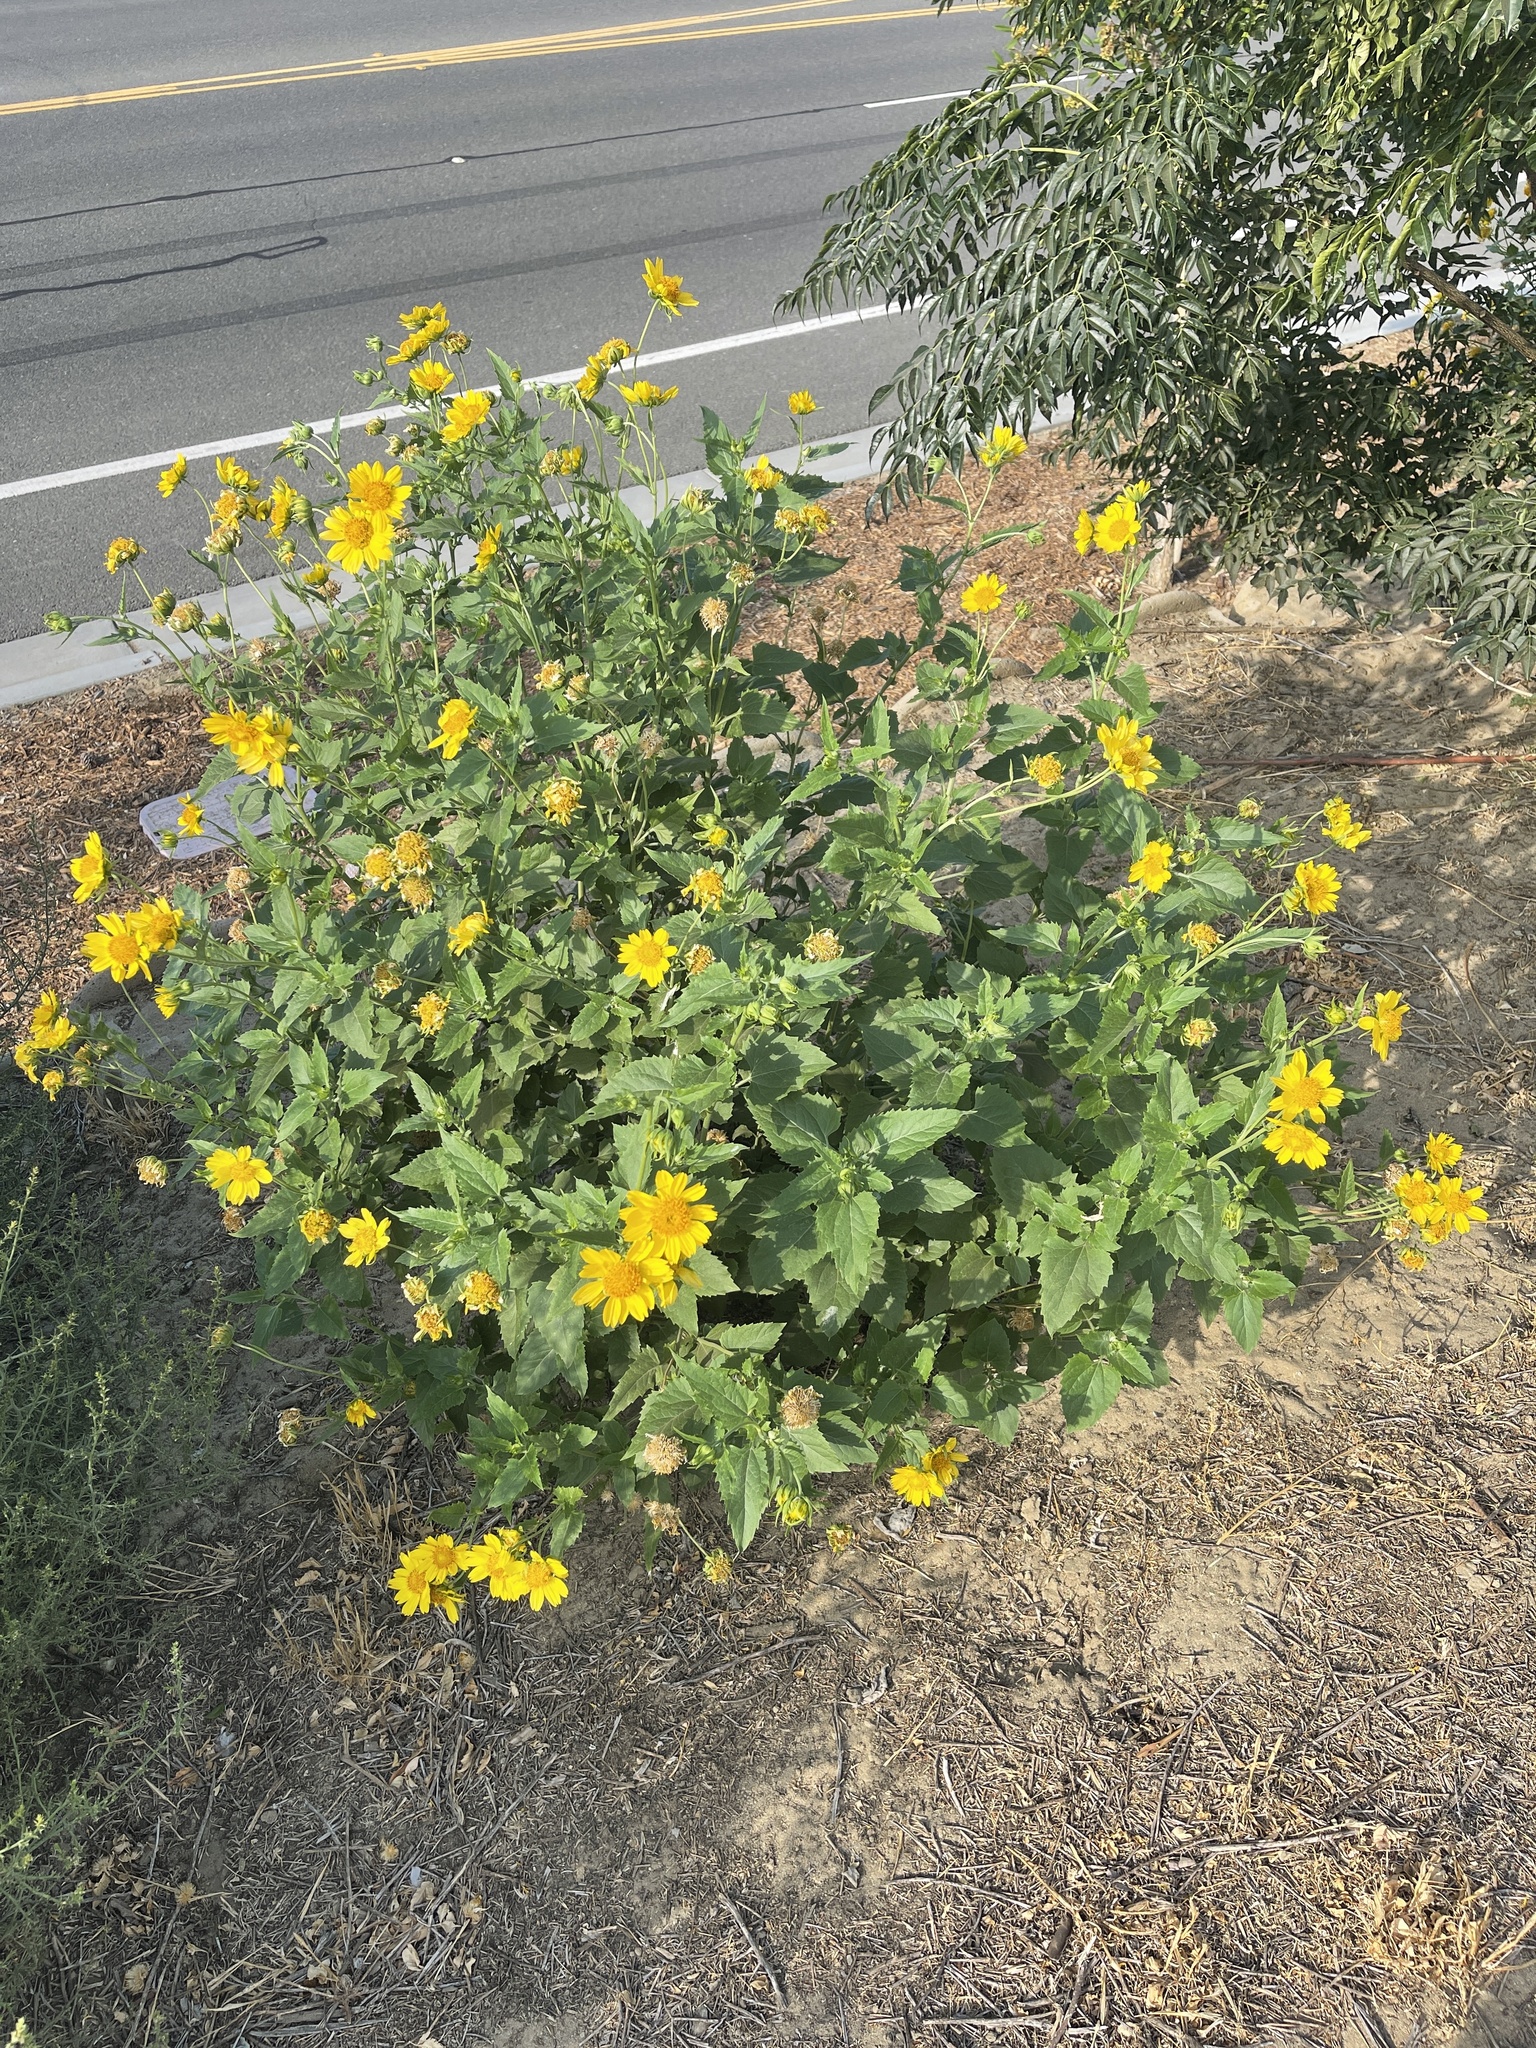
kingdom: Plantae
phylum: Tracheophyta
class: Magnoliopsida
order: Asterales
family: Asteraceae
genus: Verbesina
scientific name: Verbesina encelioides
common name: Golden crownbeard
